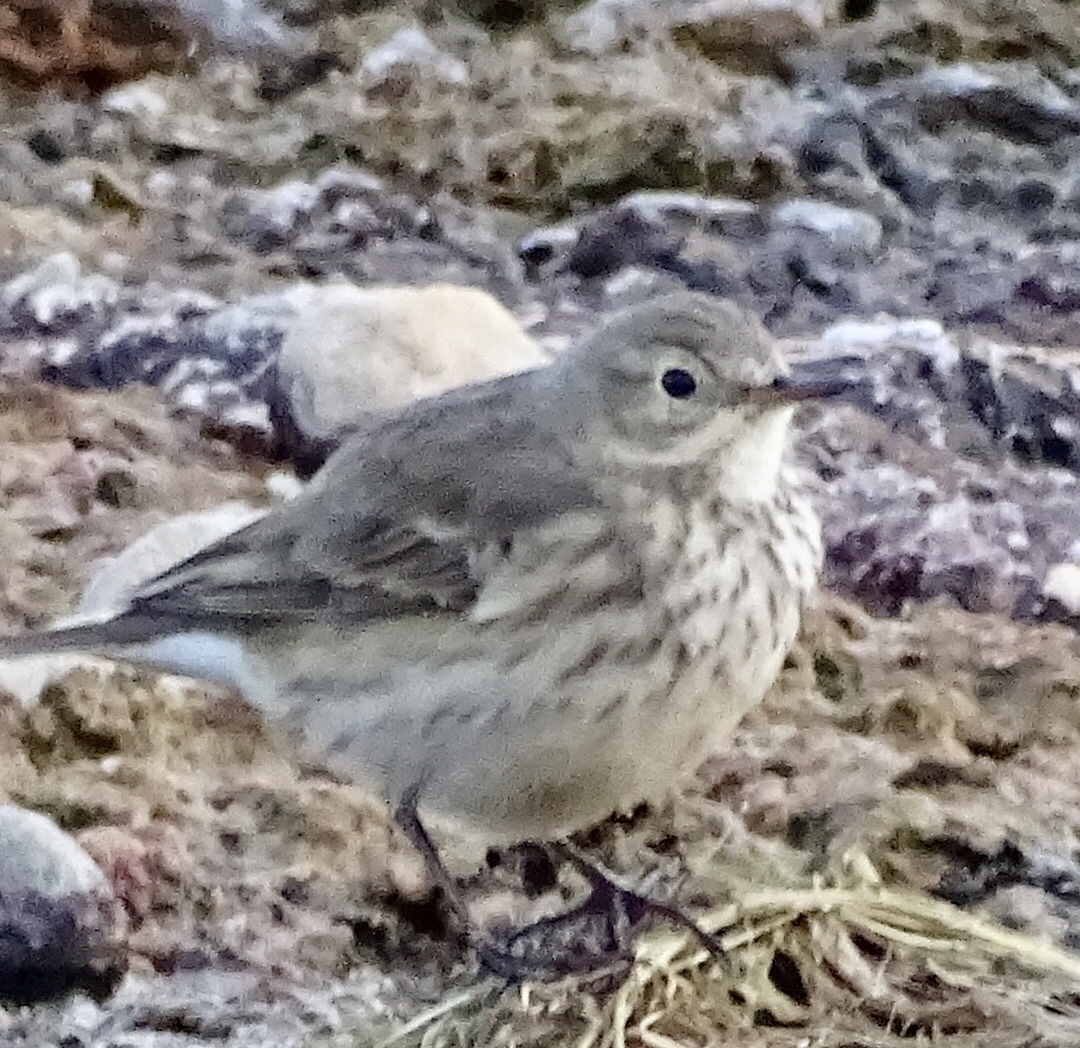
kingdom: Animalia
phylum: Chordata
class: Aves
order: Passeriformes
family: Motacillidae
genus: Anthus
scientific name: Anthus rubescens
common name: Buff-bellied pipit
